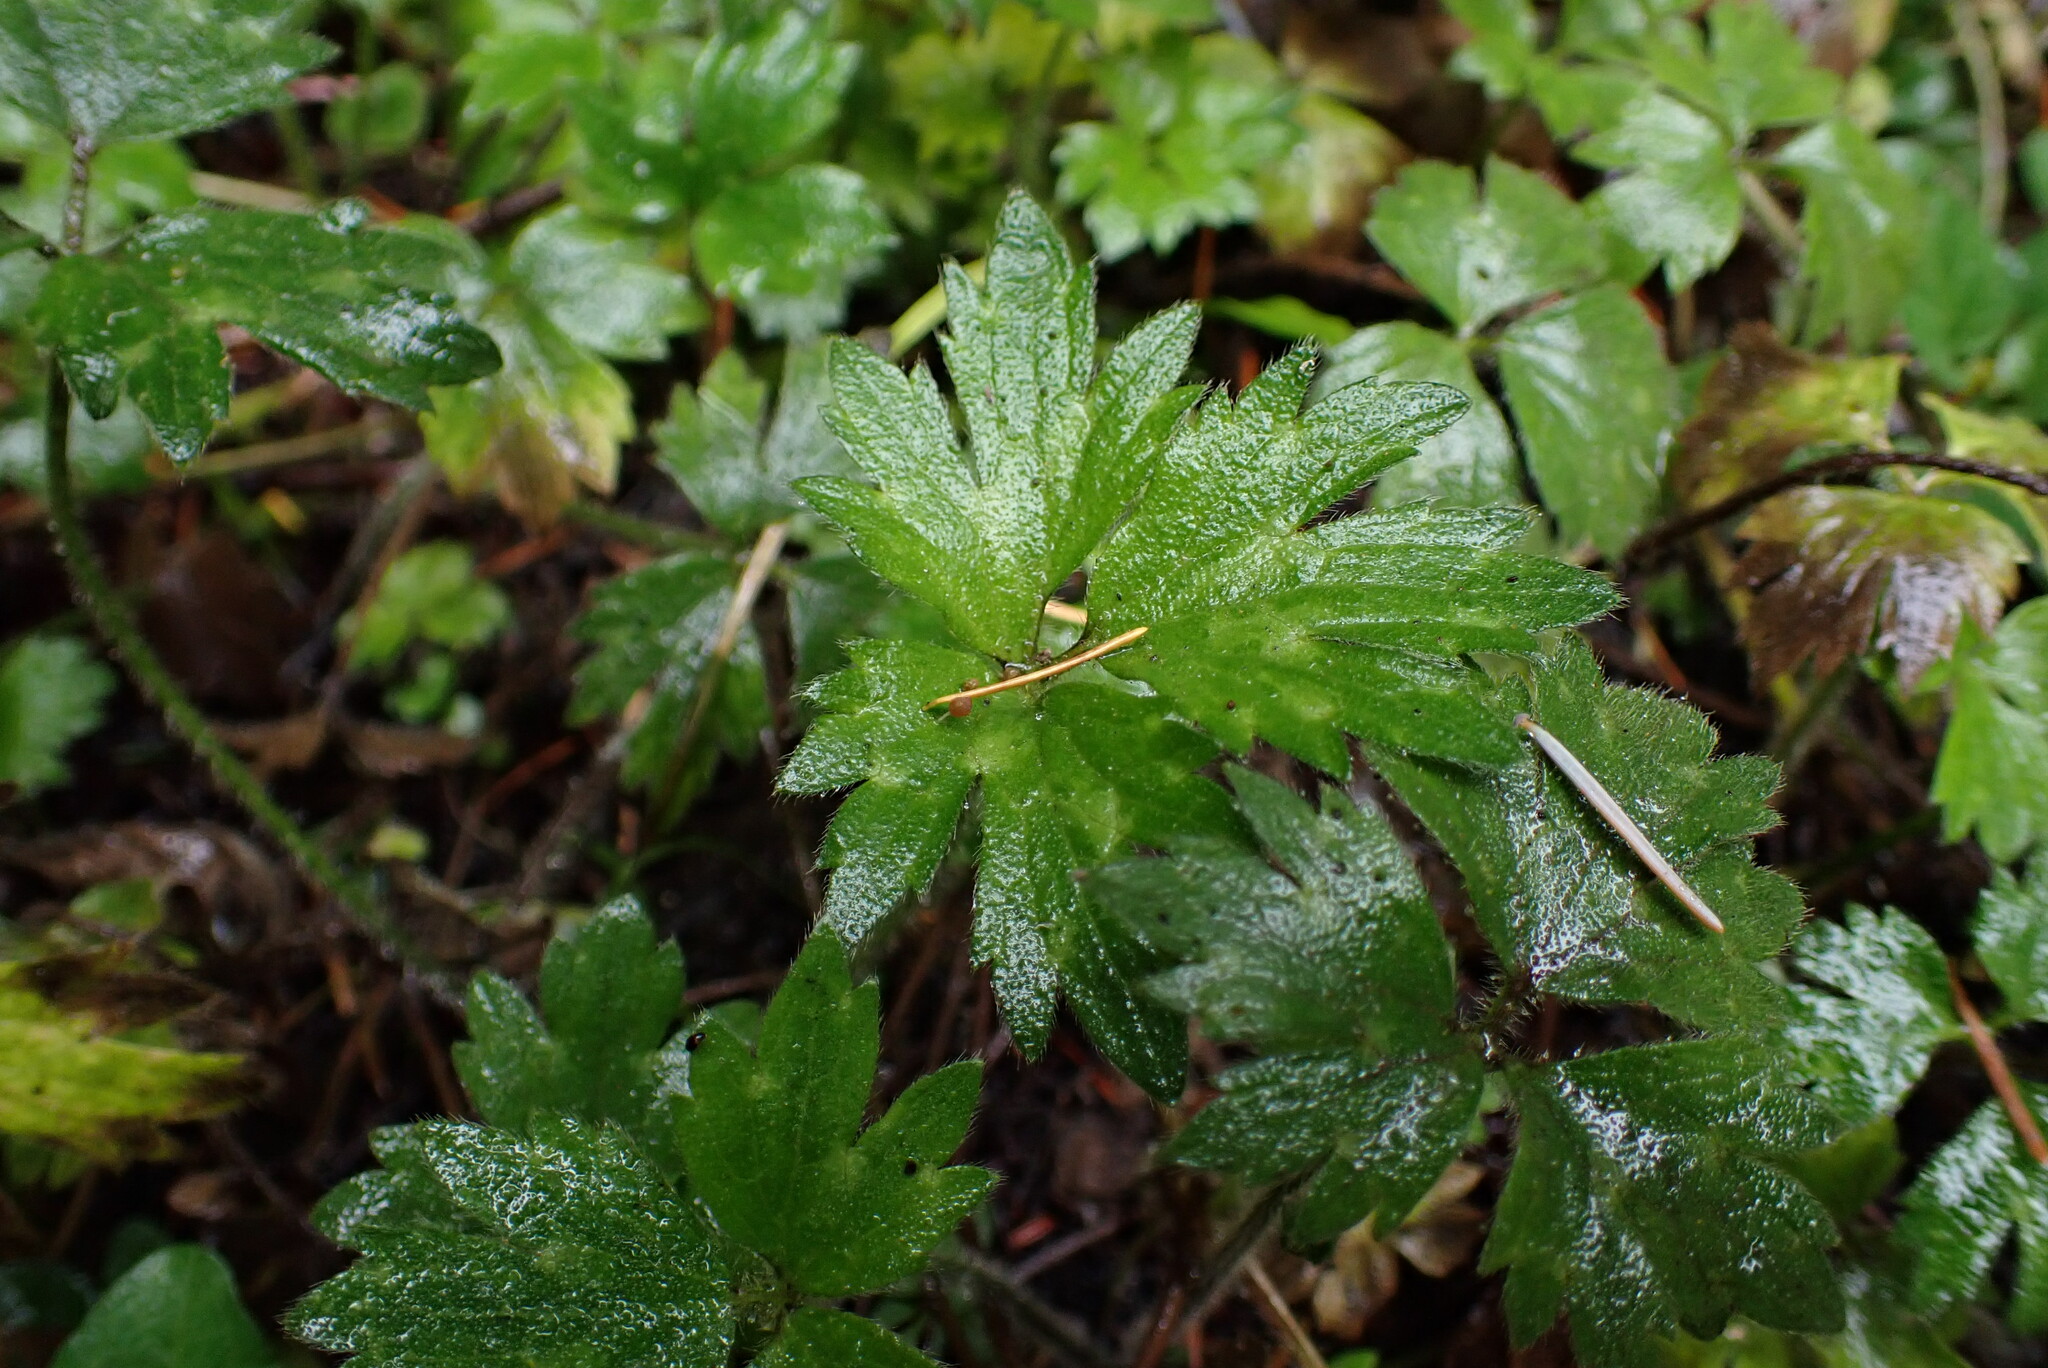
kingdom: Plantae
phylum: Tracheophyta
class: Magnoliopsida
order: Ranunculales
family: Ranunculaceae
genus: Ranunculus
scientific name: Ranunculus repens
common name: Creeping buttercup
